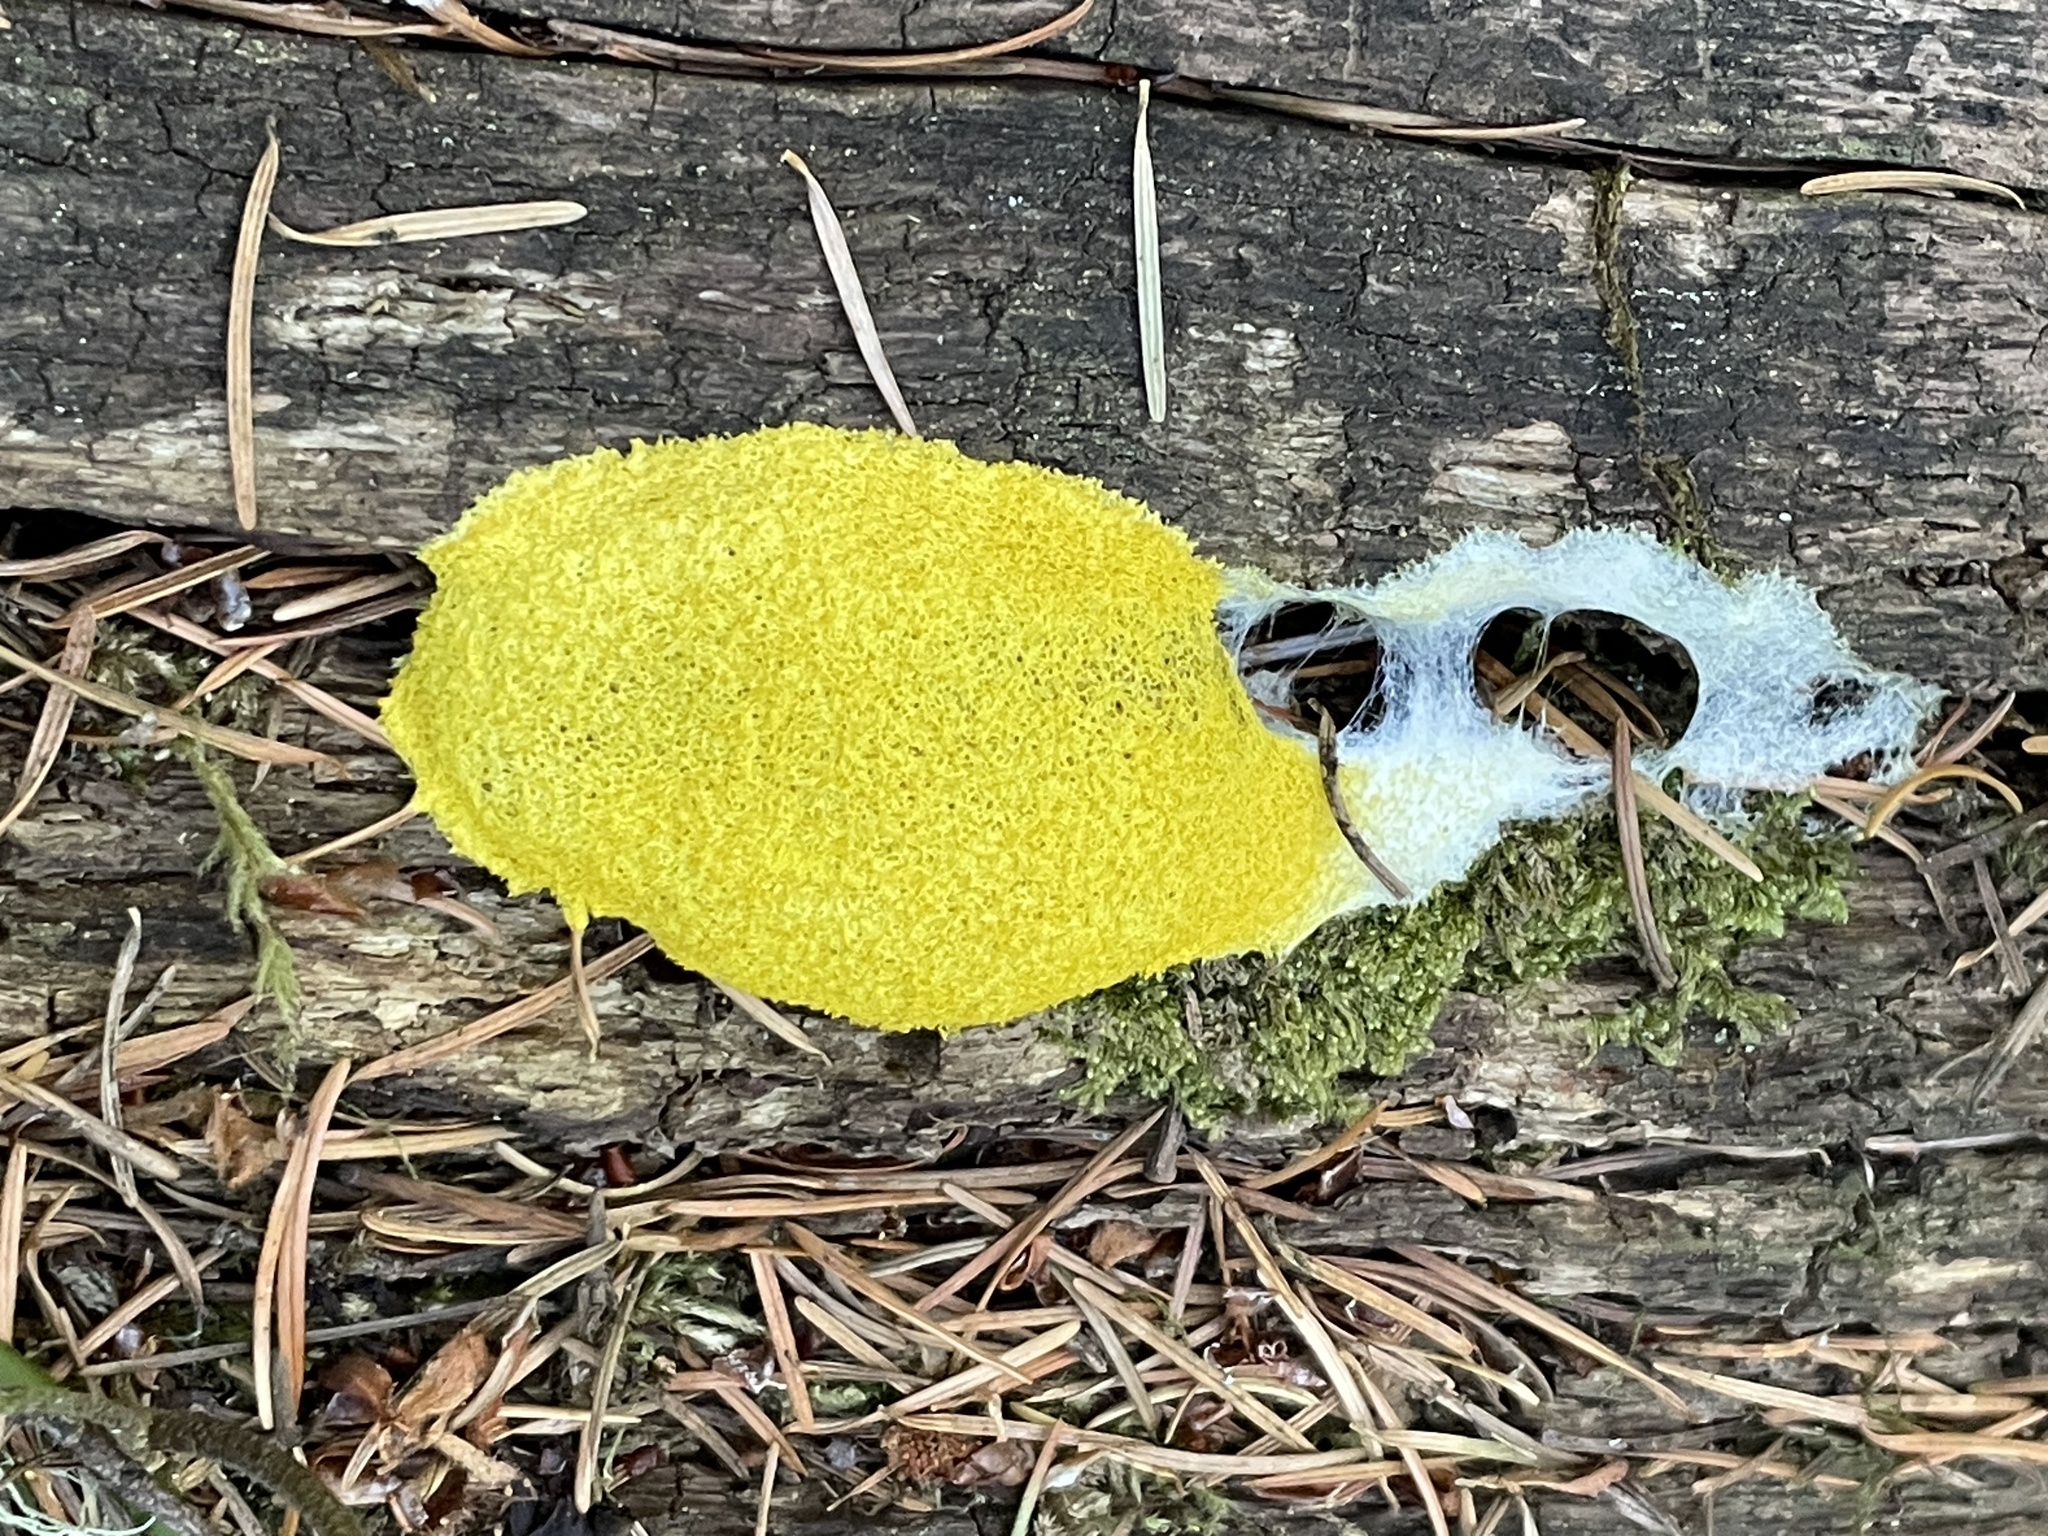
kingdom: Protozoa
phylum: Mycetozoa
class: Myxomycetes
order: Physarales
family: Physaraceae
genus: Fuligo
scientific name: Fuligo septica
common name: Dog vomit slime mold
